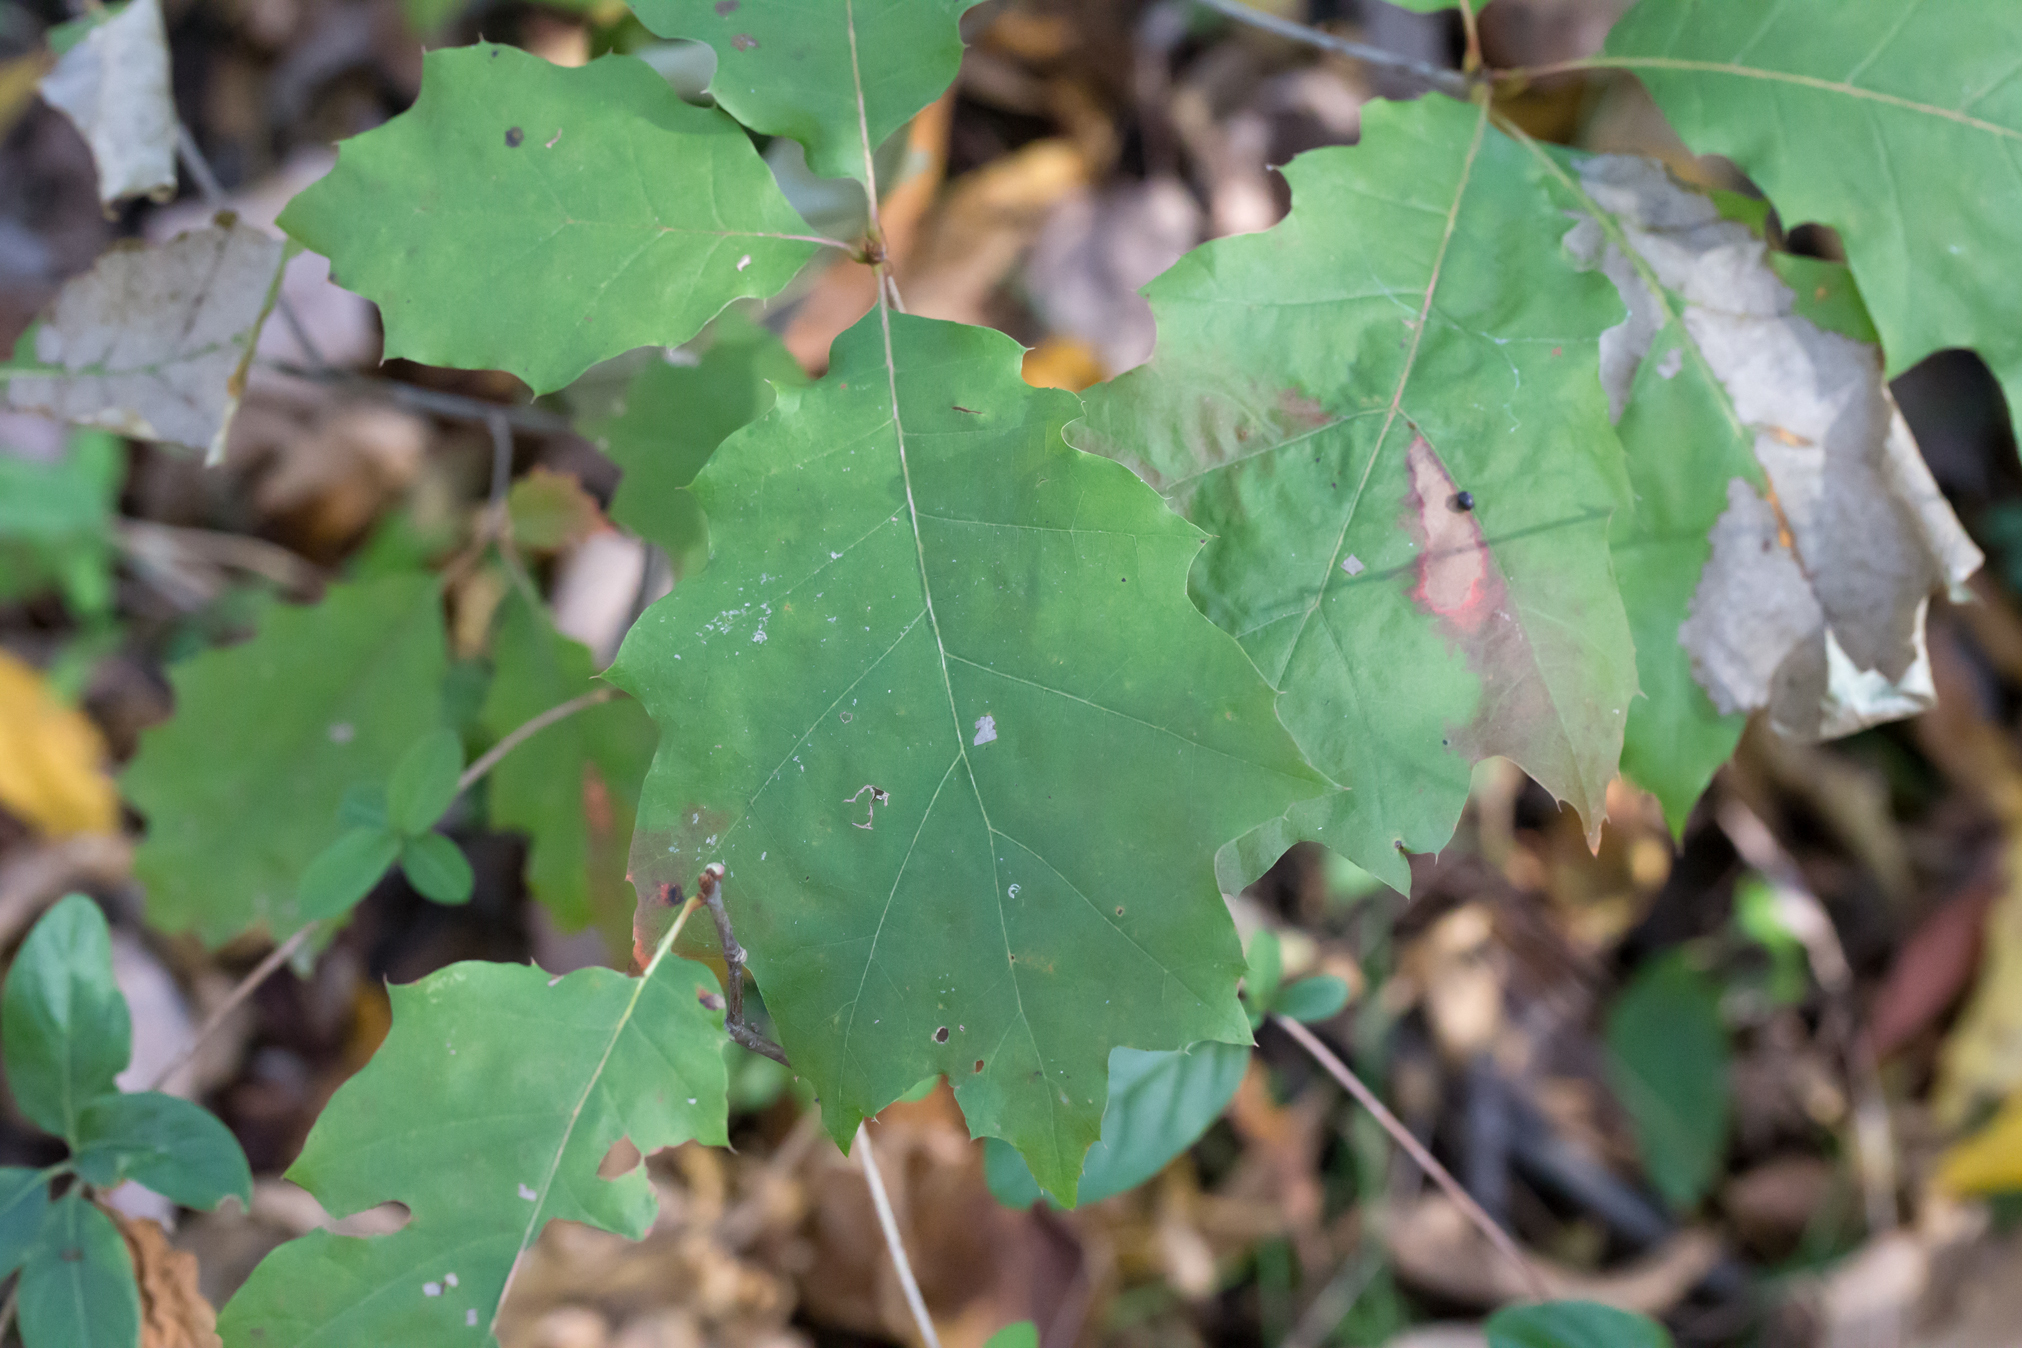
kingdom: Plantae
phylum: Tracheophyta
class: Magnoliopsida
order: Fagales
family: Fagaceae
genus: Quercus
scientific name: Quercus rubra
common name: Red oak
